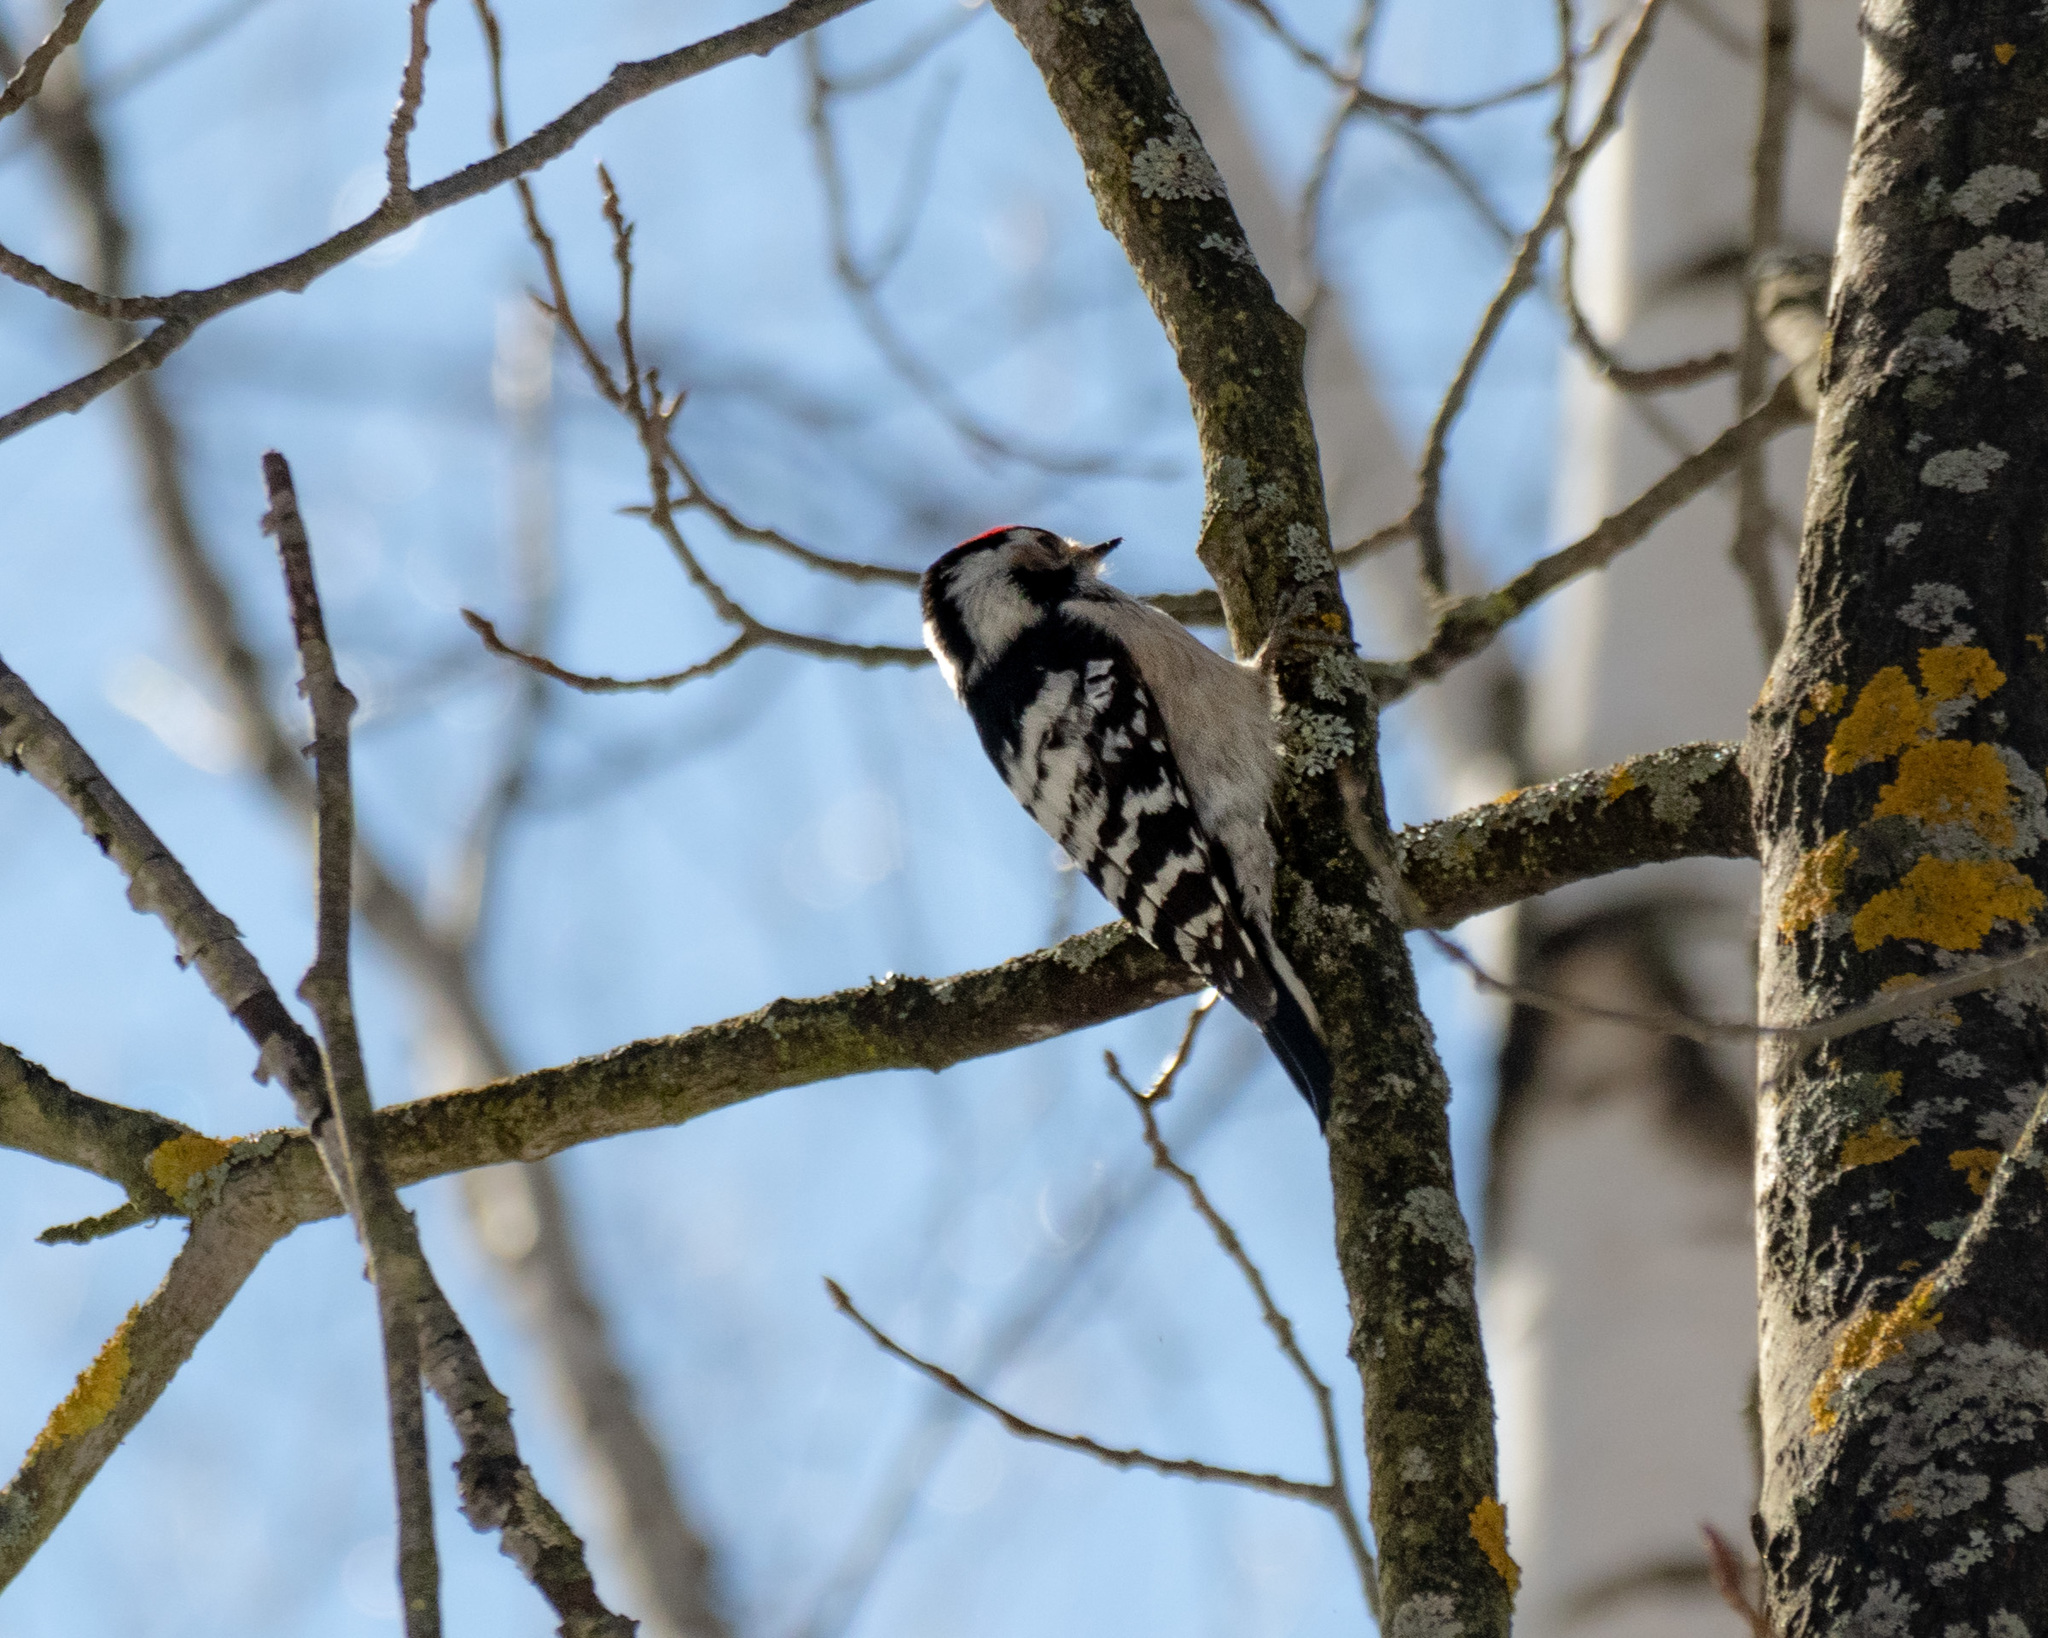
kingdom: Animalia
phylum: Chordata
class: Aves
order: Piciformes
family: Picidae
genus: Dryobates
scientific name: Dryobates minor
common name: Lesser spotted woodpecker
